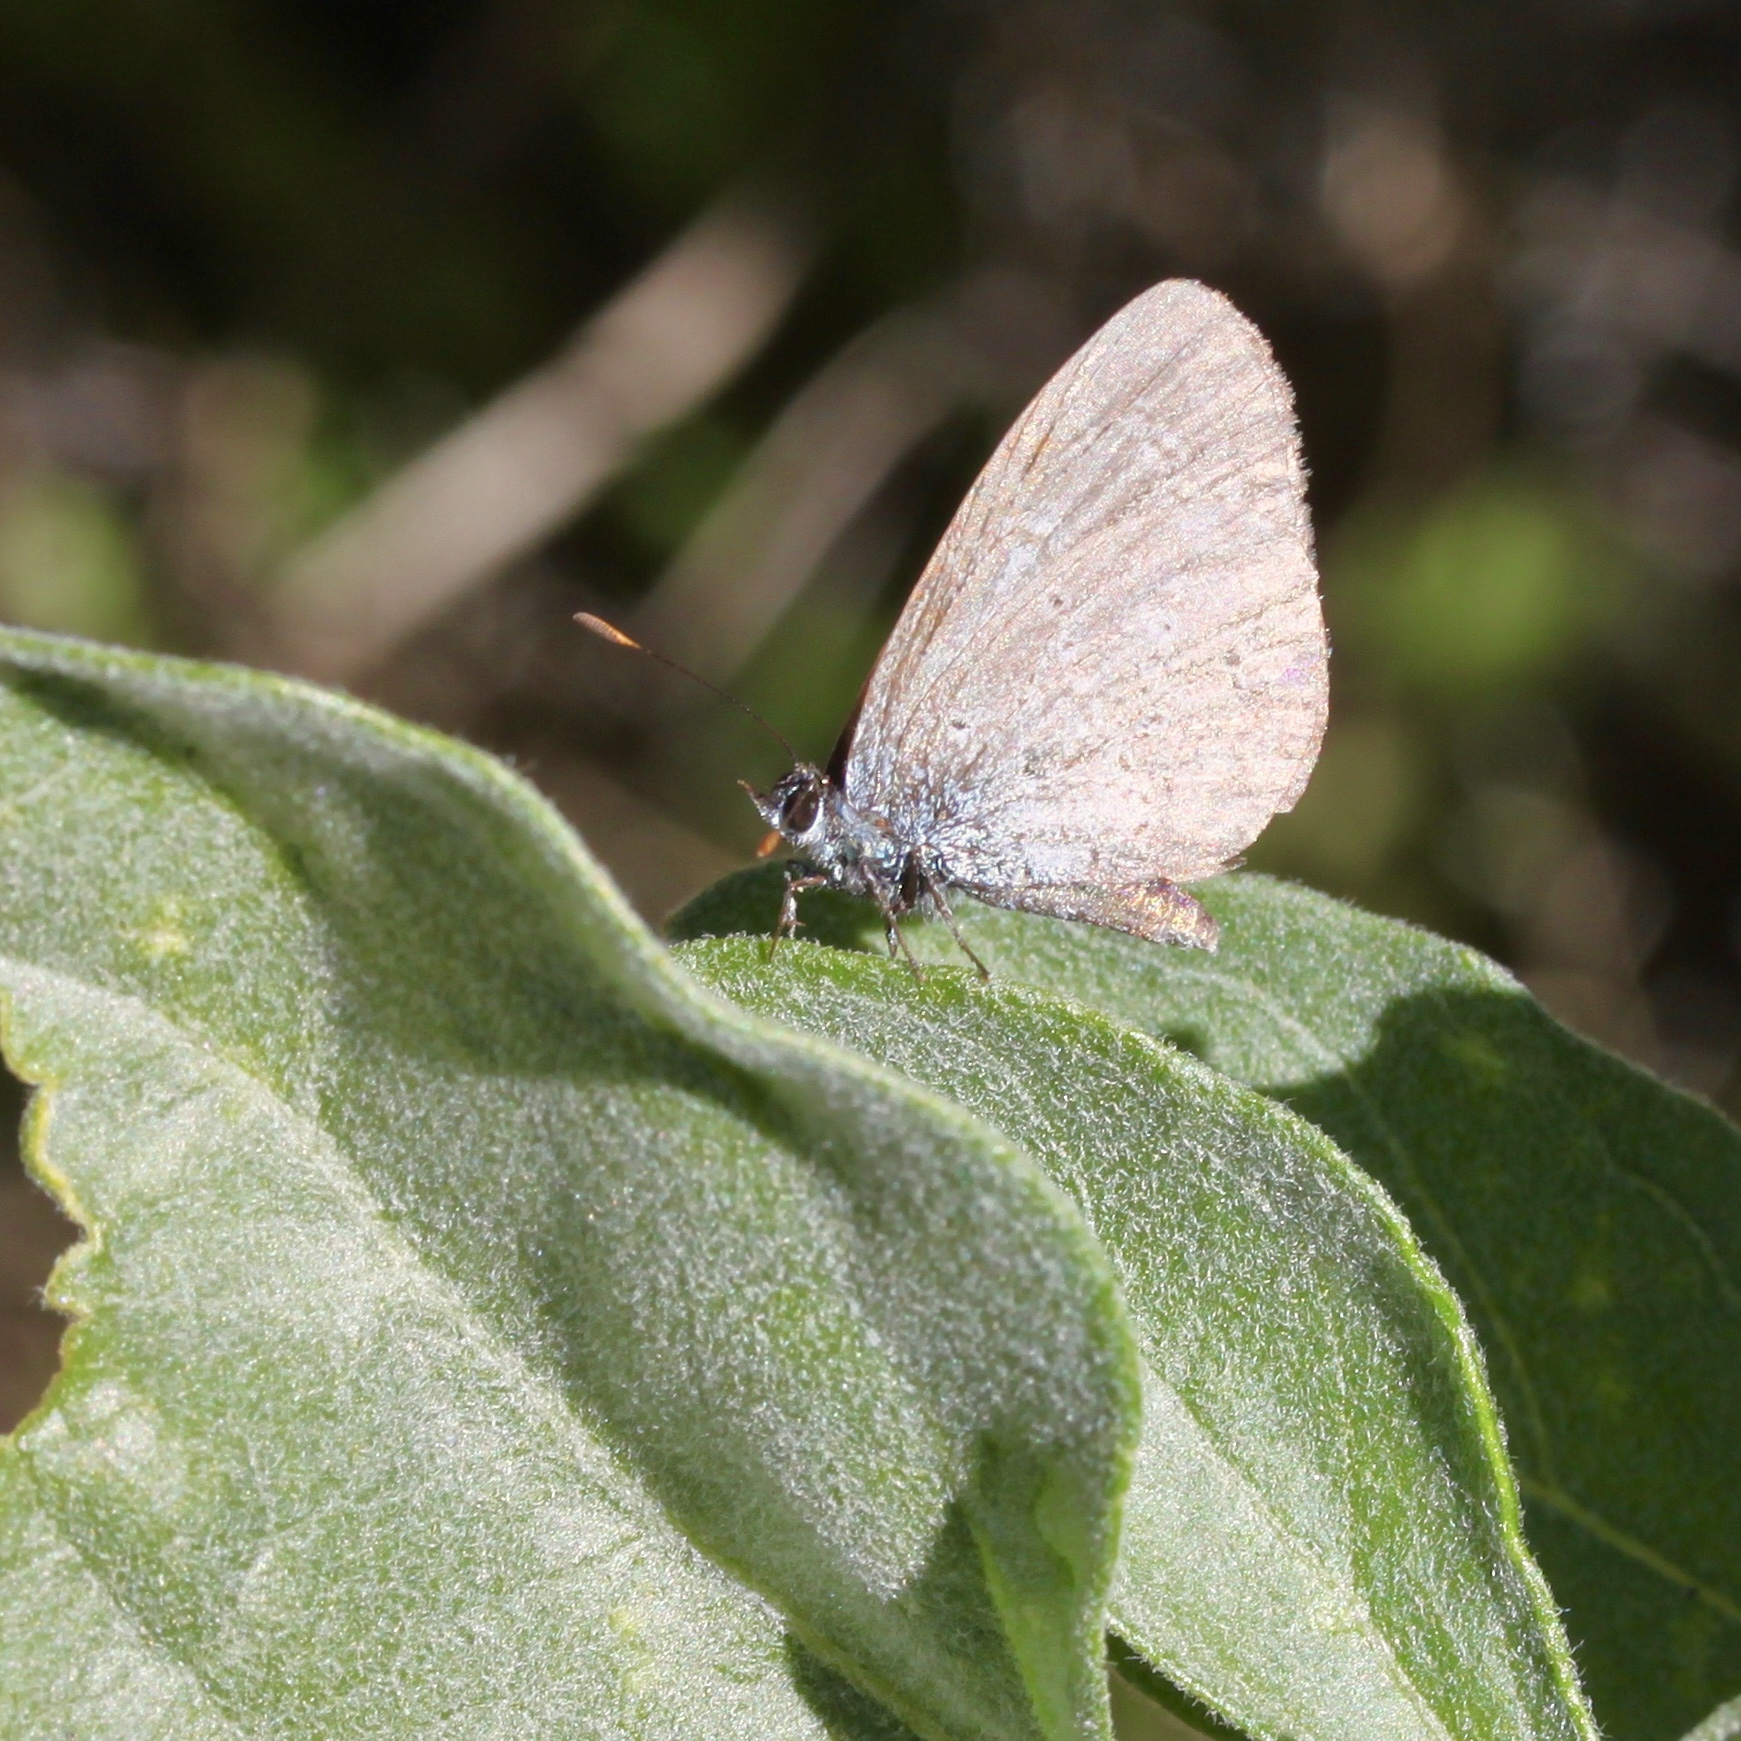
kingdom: Animalia
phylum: Arthropoda
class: Insecta
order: Lepidoptera
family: Lycaenidae
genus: Celastrina
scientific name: Celastrina ladon
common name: Spring azure
